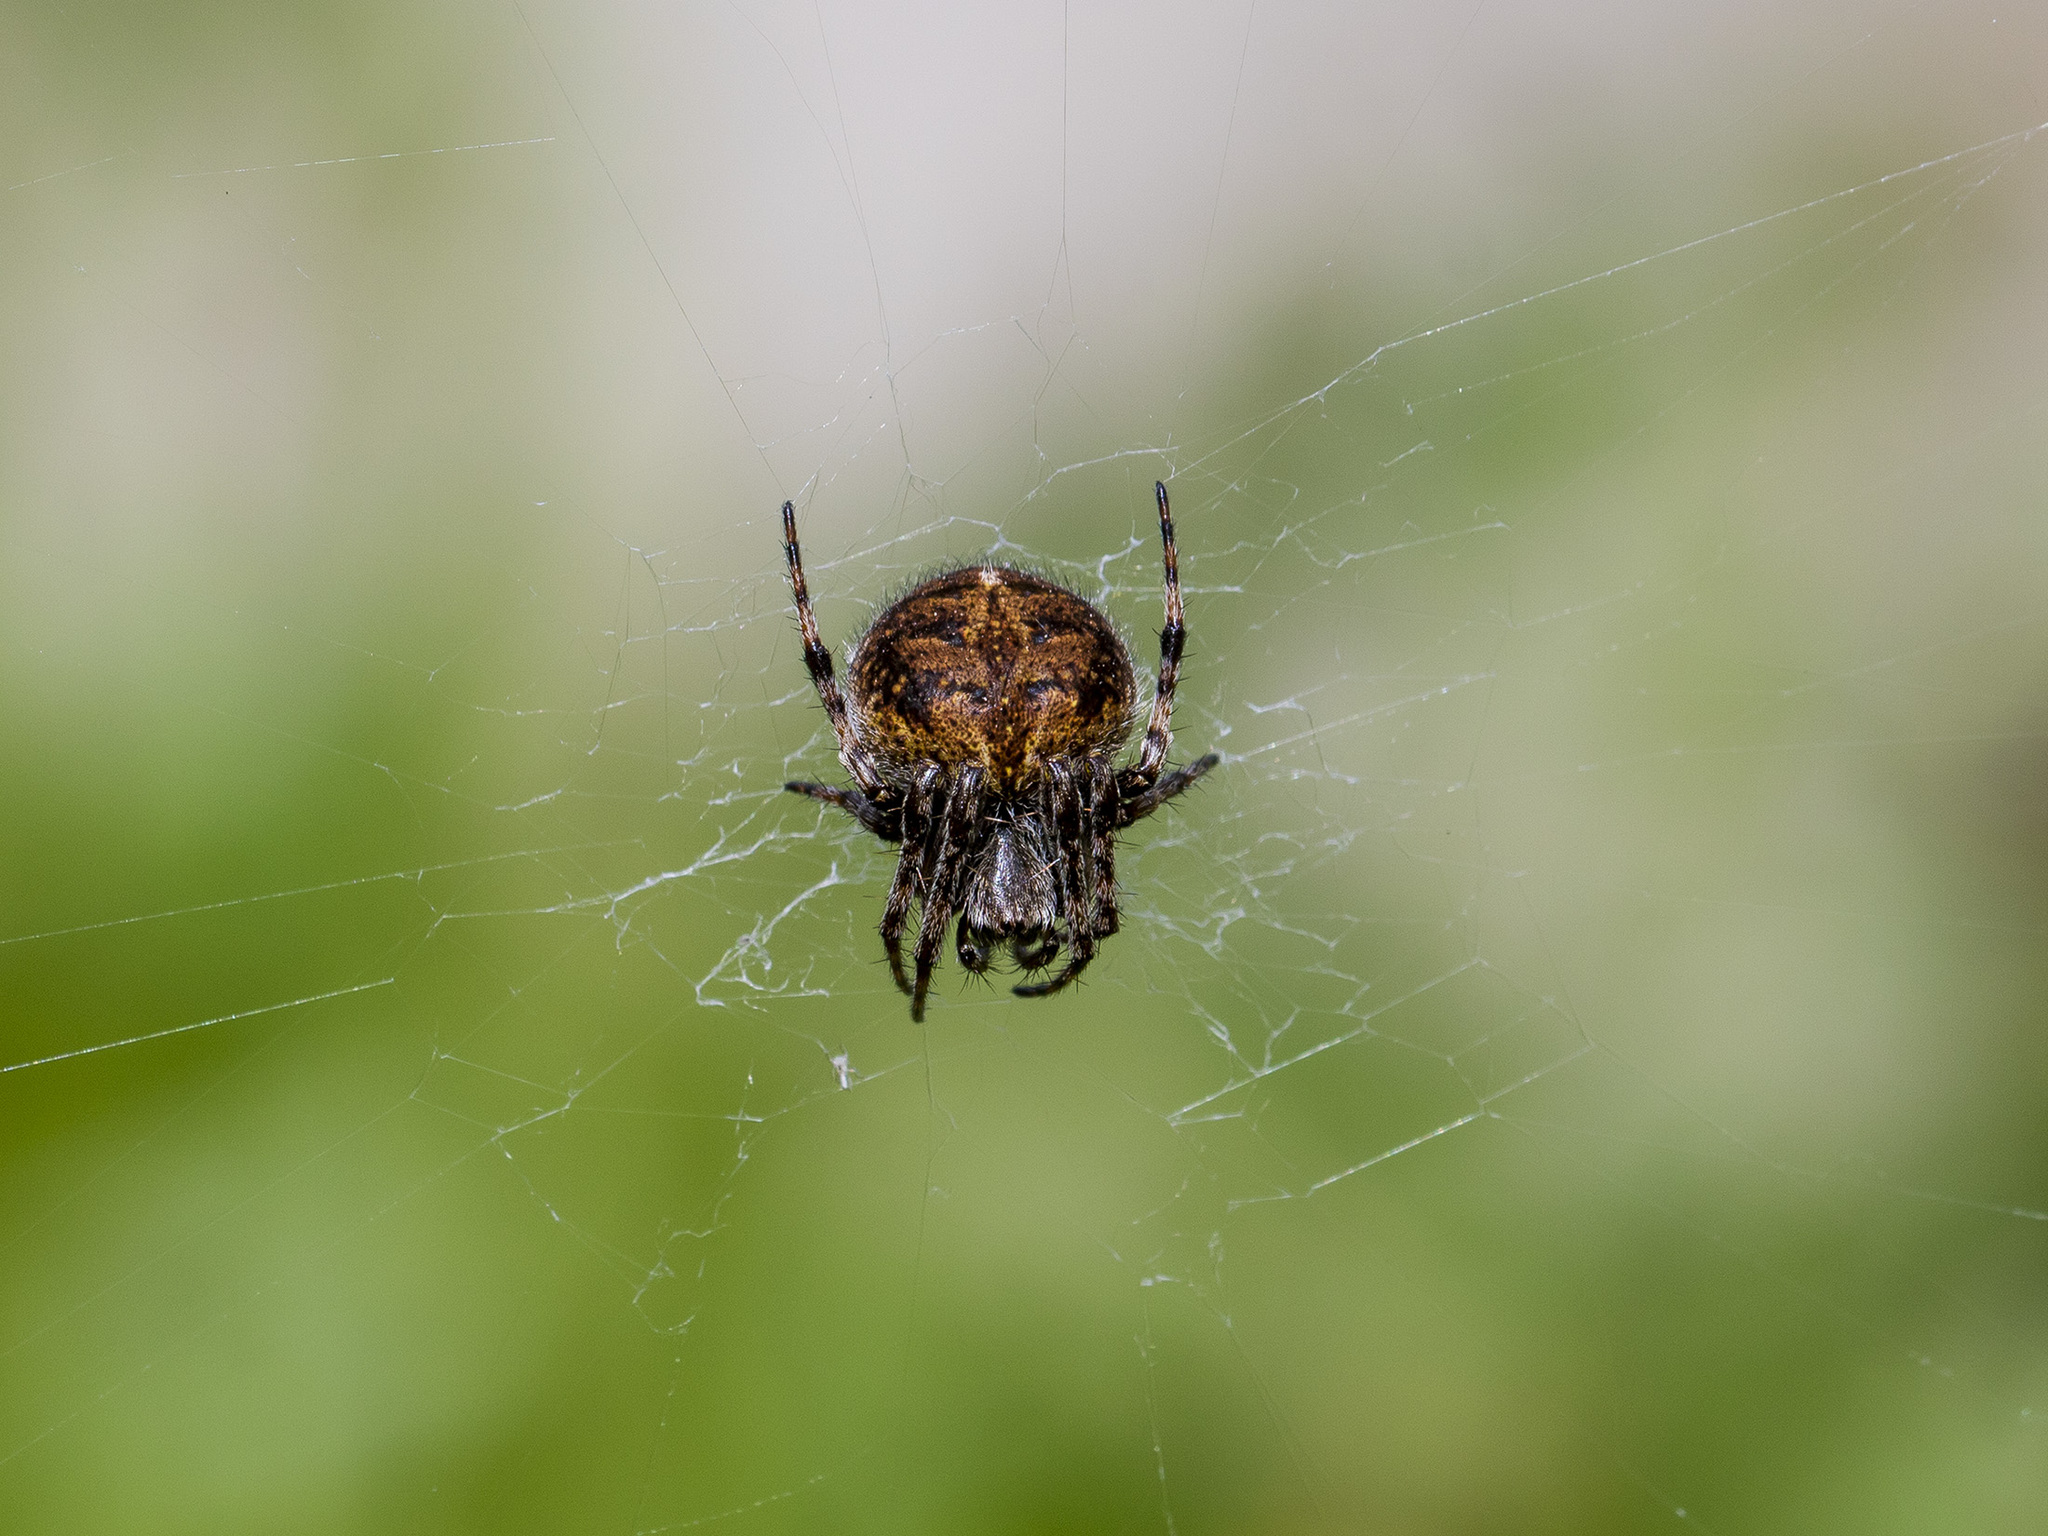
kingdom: Animalia
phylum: Arthropoda
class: Arachnida
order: Araneae
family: Araneidae
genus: Agalenatea
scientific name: Agalenatea redii
